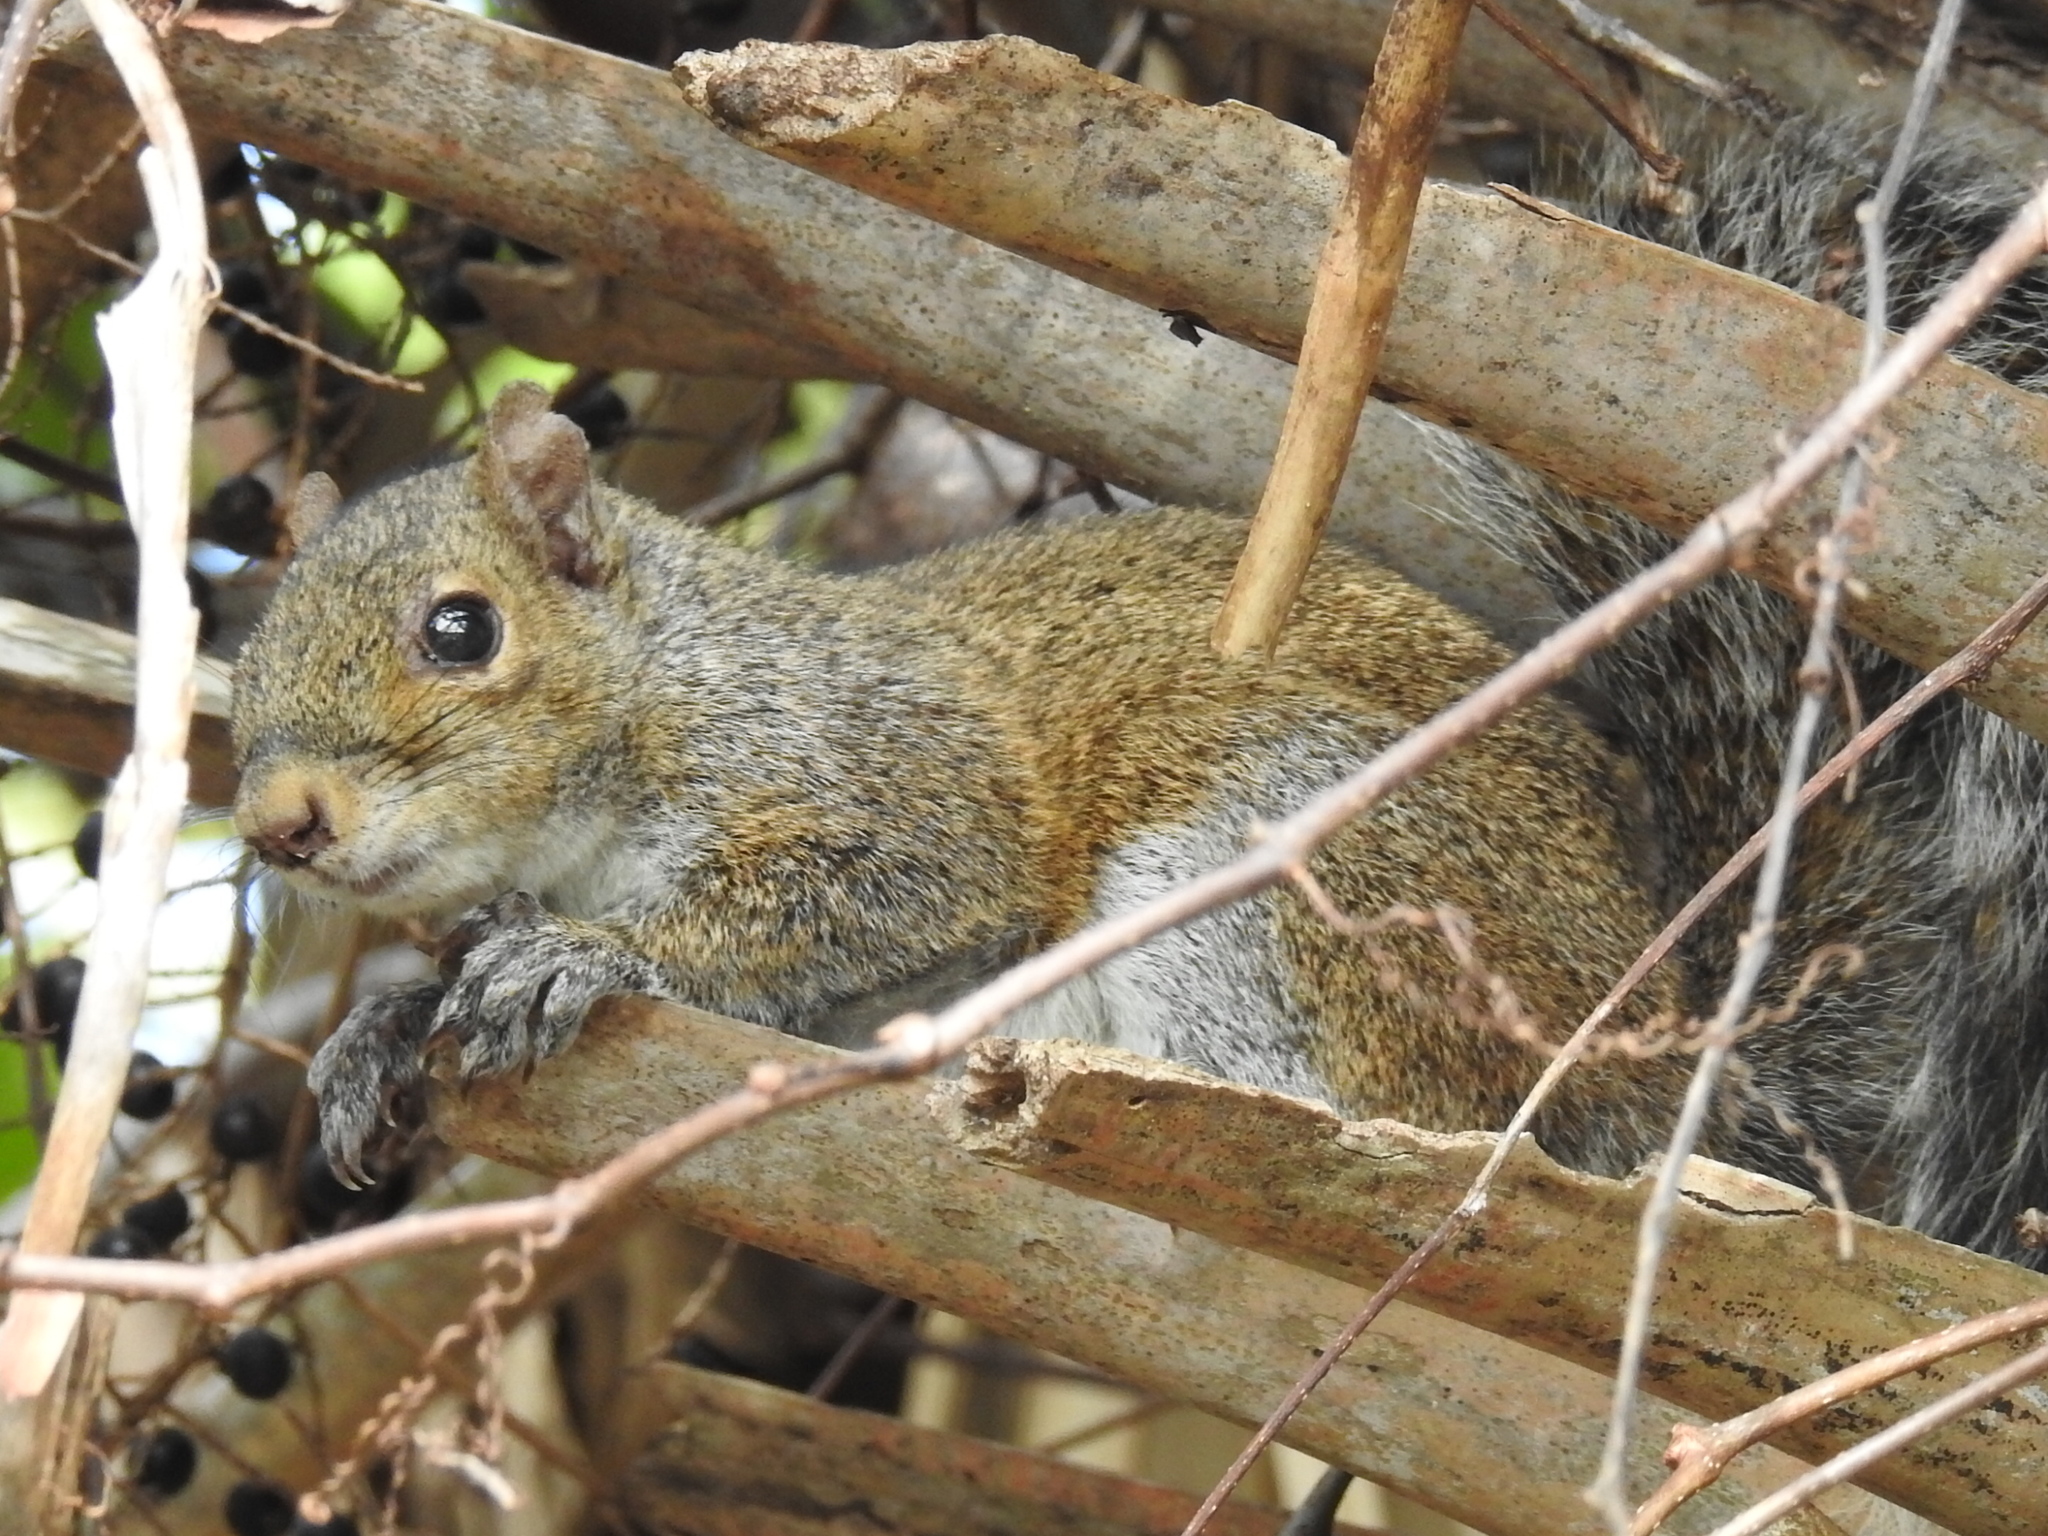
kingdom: Animalia
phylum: Chordata
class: Mammalia
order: Rodentia
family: Sciuridae
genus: Sciurus
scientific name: Sciurus carolinensis
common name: Eastern gray squirrel
